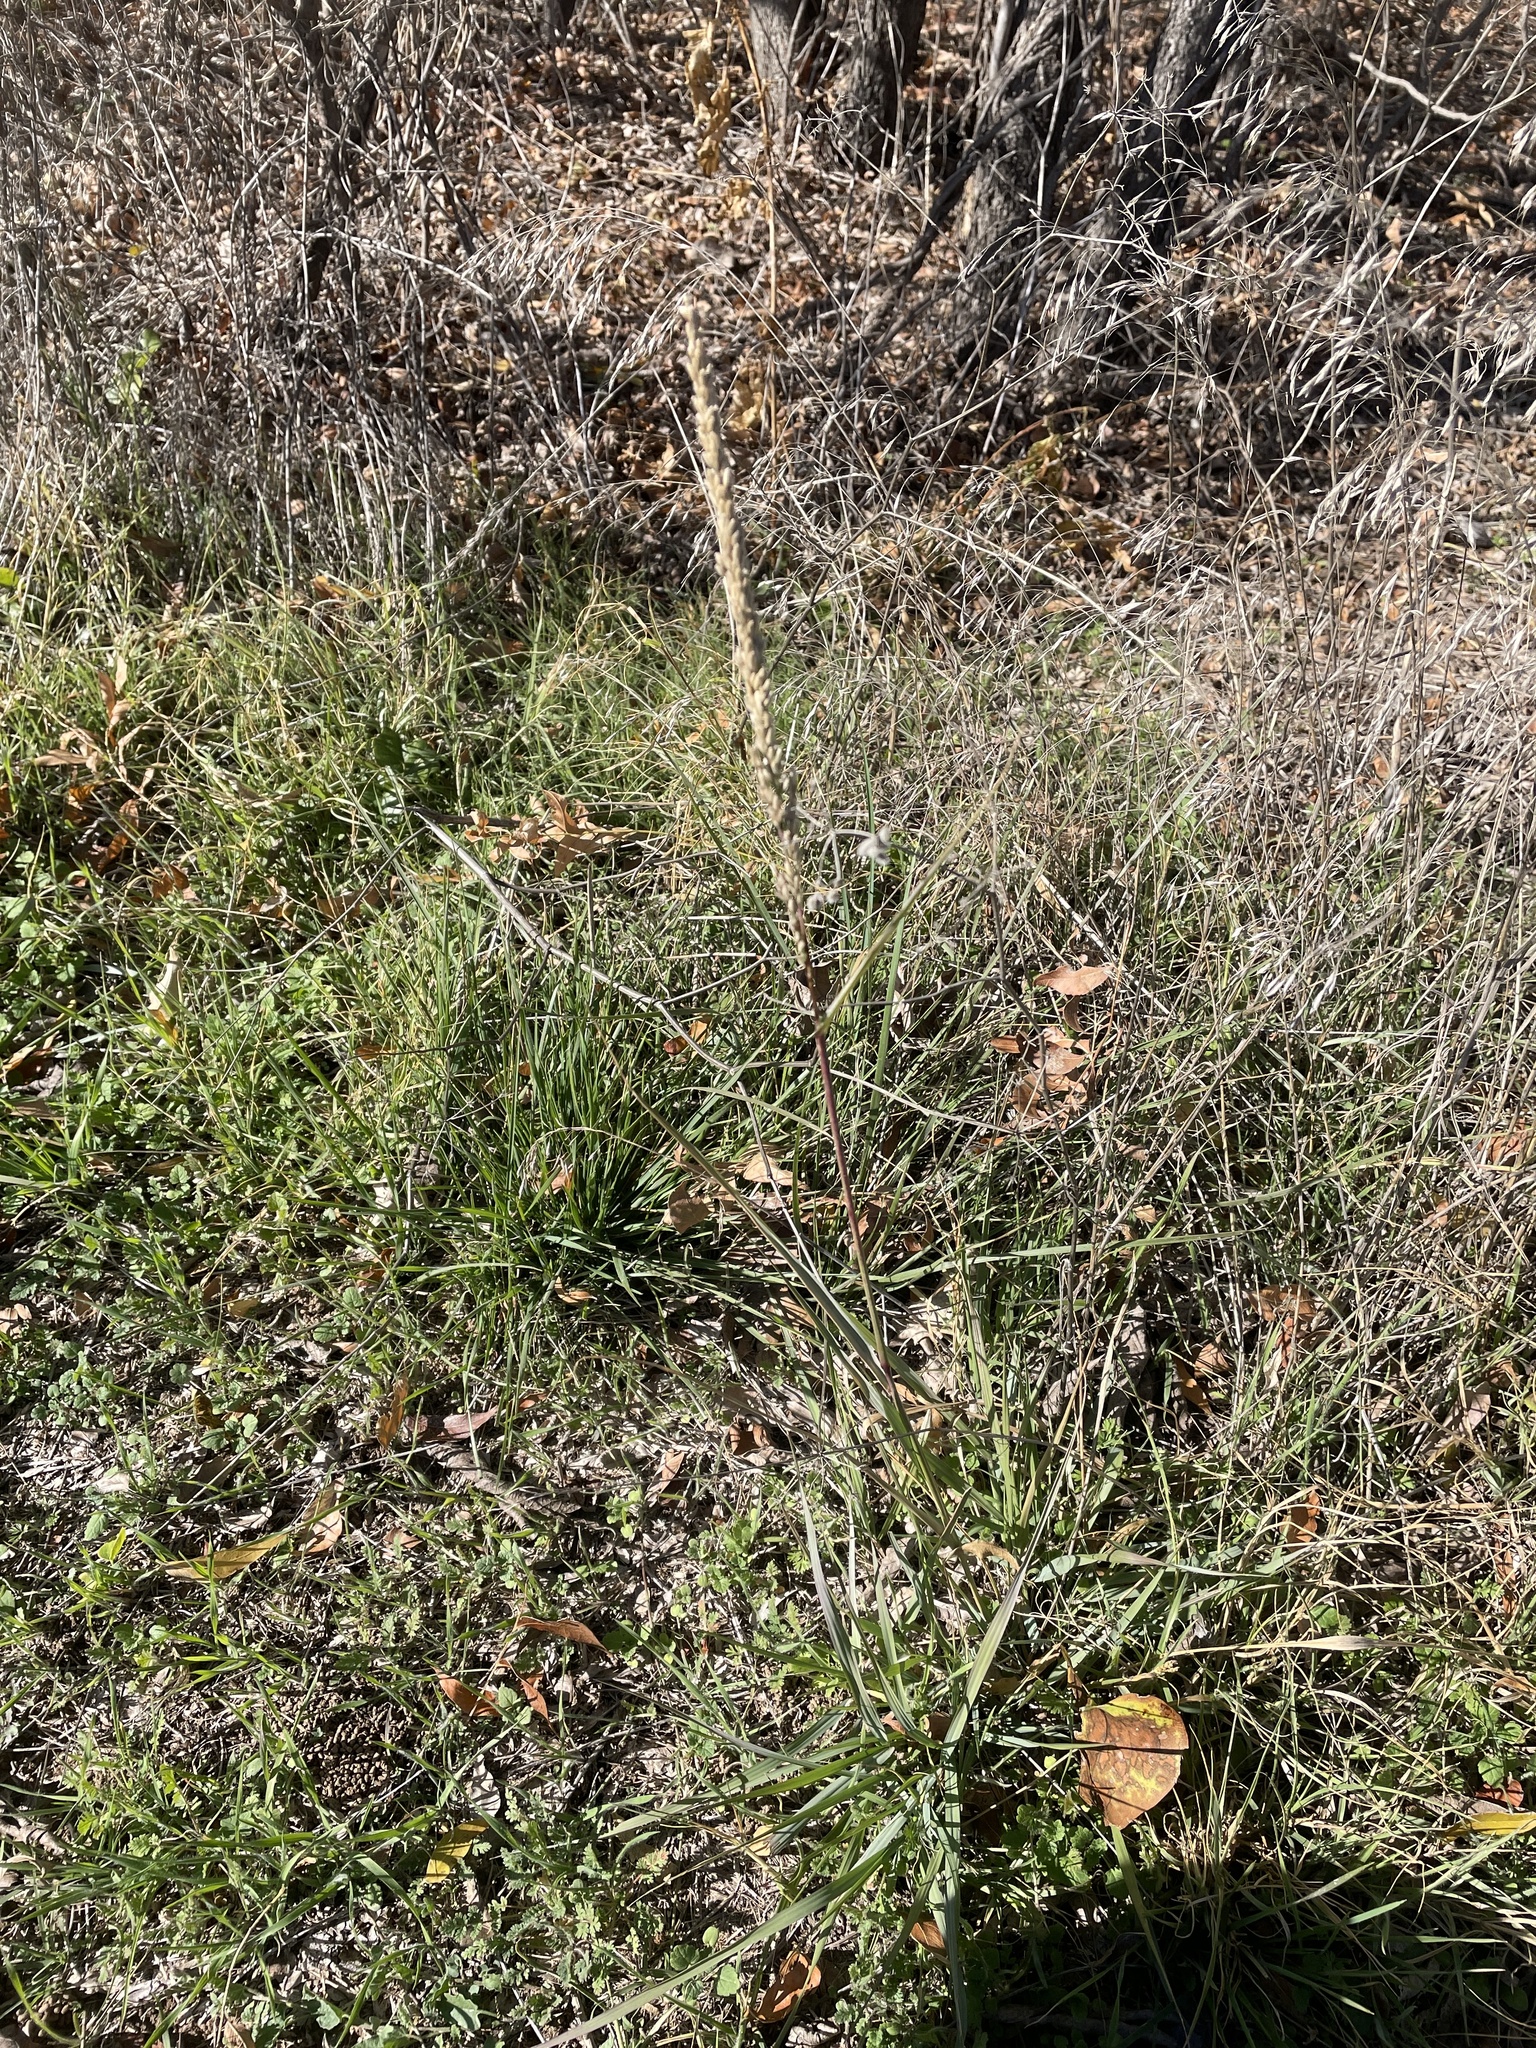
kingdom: Plantae
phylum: Tracheophyta
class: Liliopsida
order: Poales
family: Poaceae
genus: Tridens
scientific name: Tridens albescens
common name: White tridens
